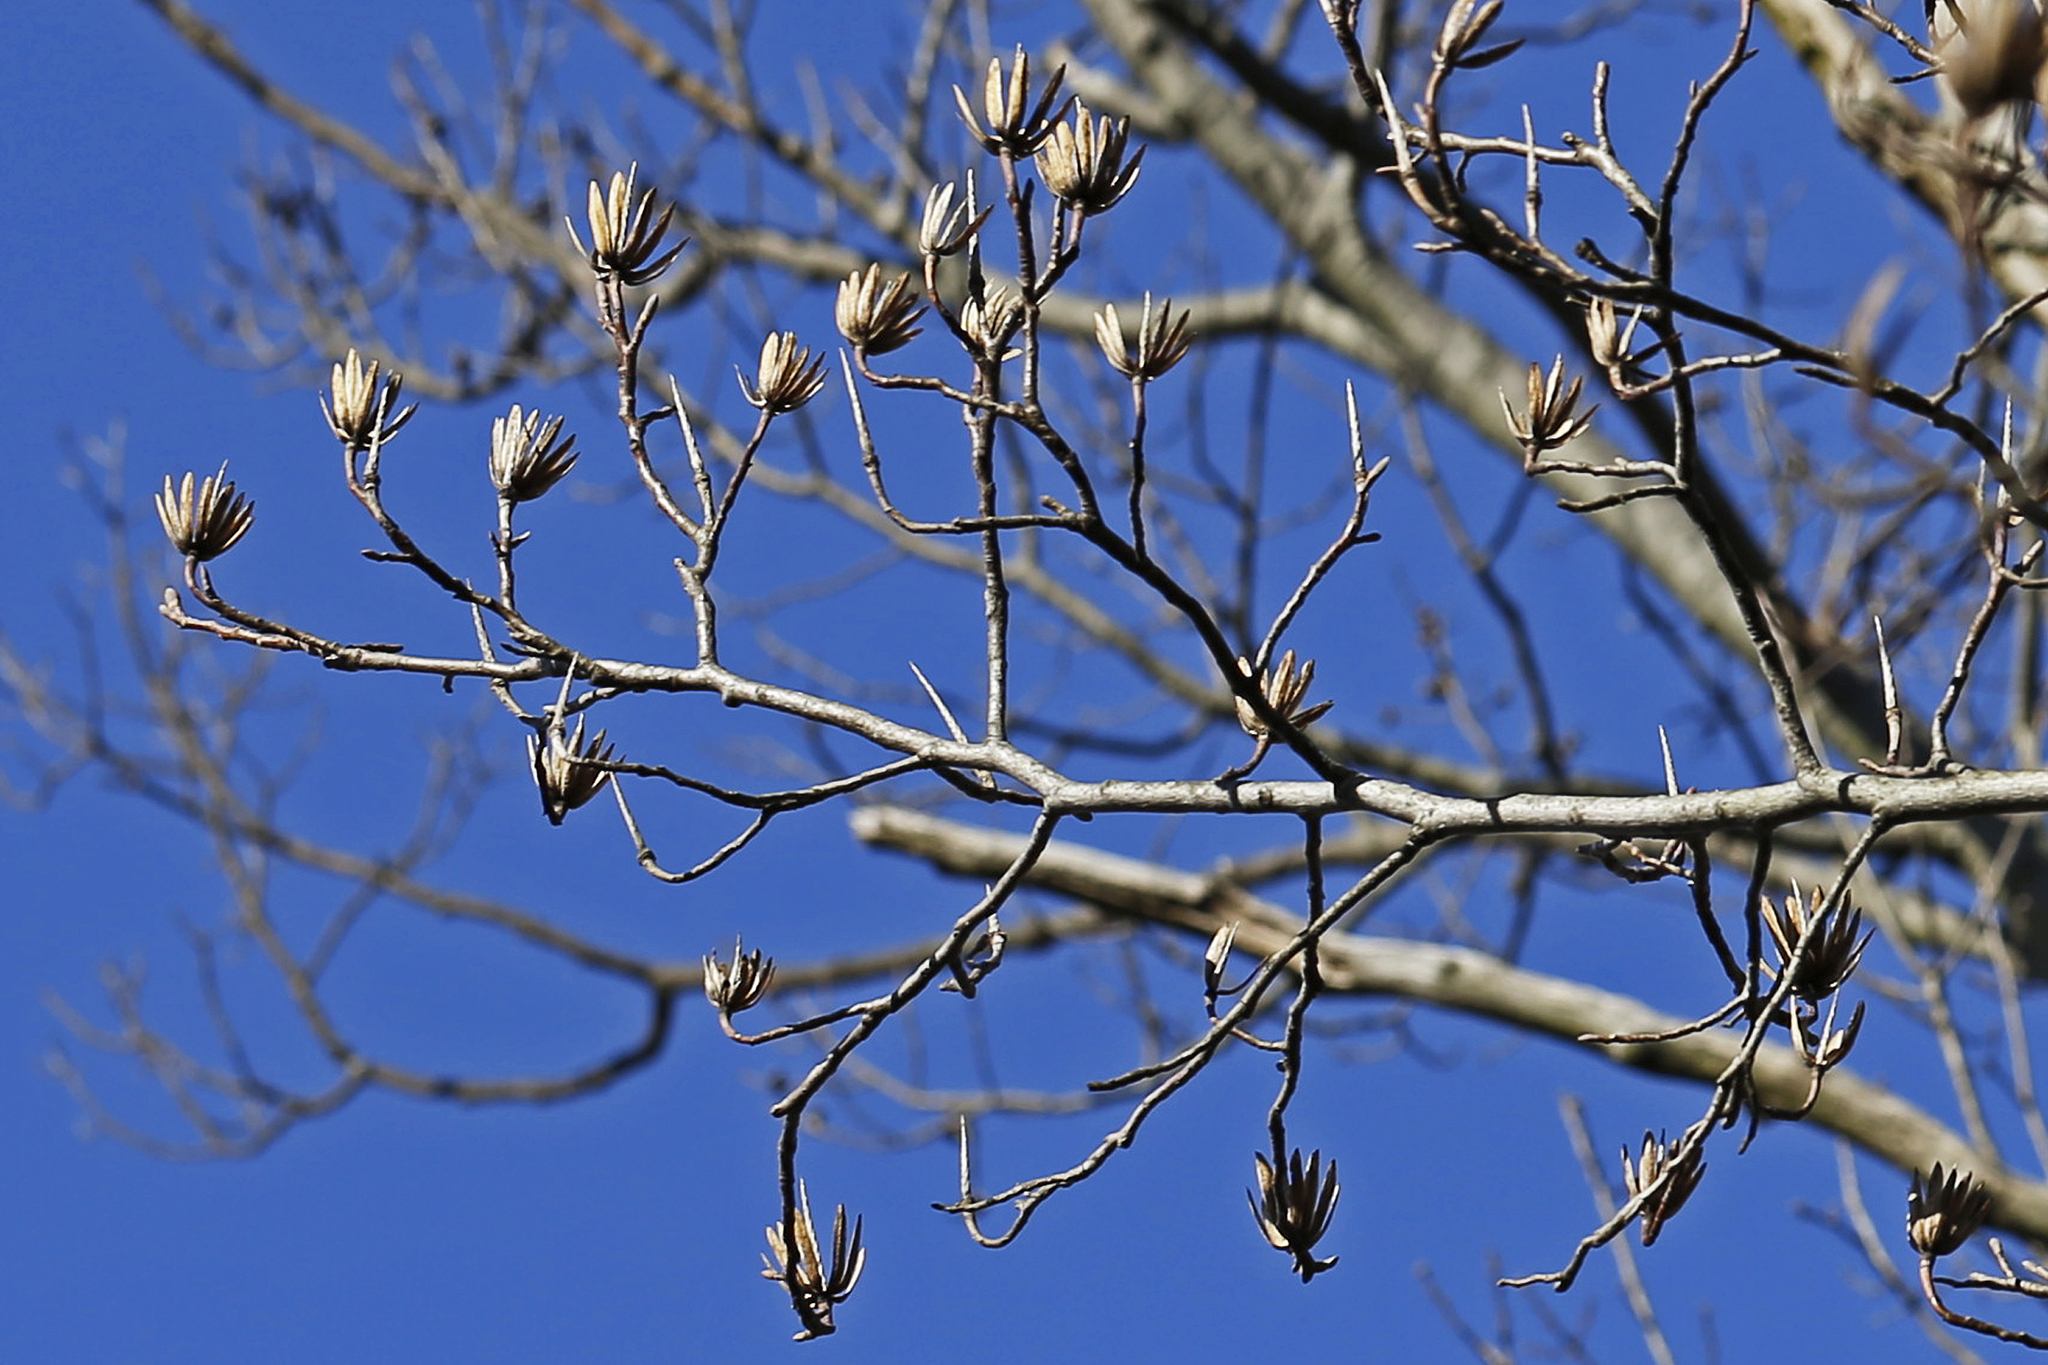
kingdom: Plantae
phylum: Tracheophyta
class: Magnoliopsida
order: Magnoliales
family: Magnoliaceae
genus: Liriodendron
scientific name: Liriodendron tulipifera
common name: Tulip tree
